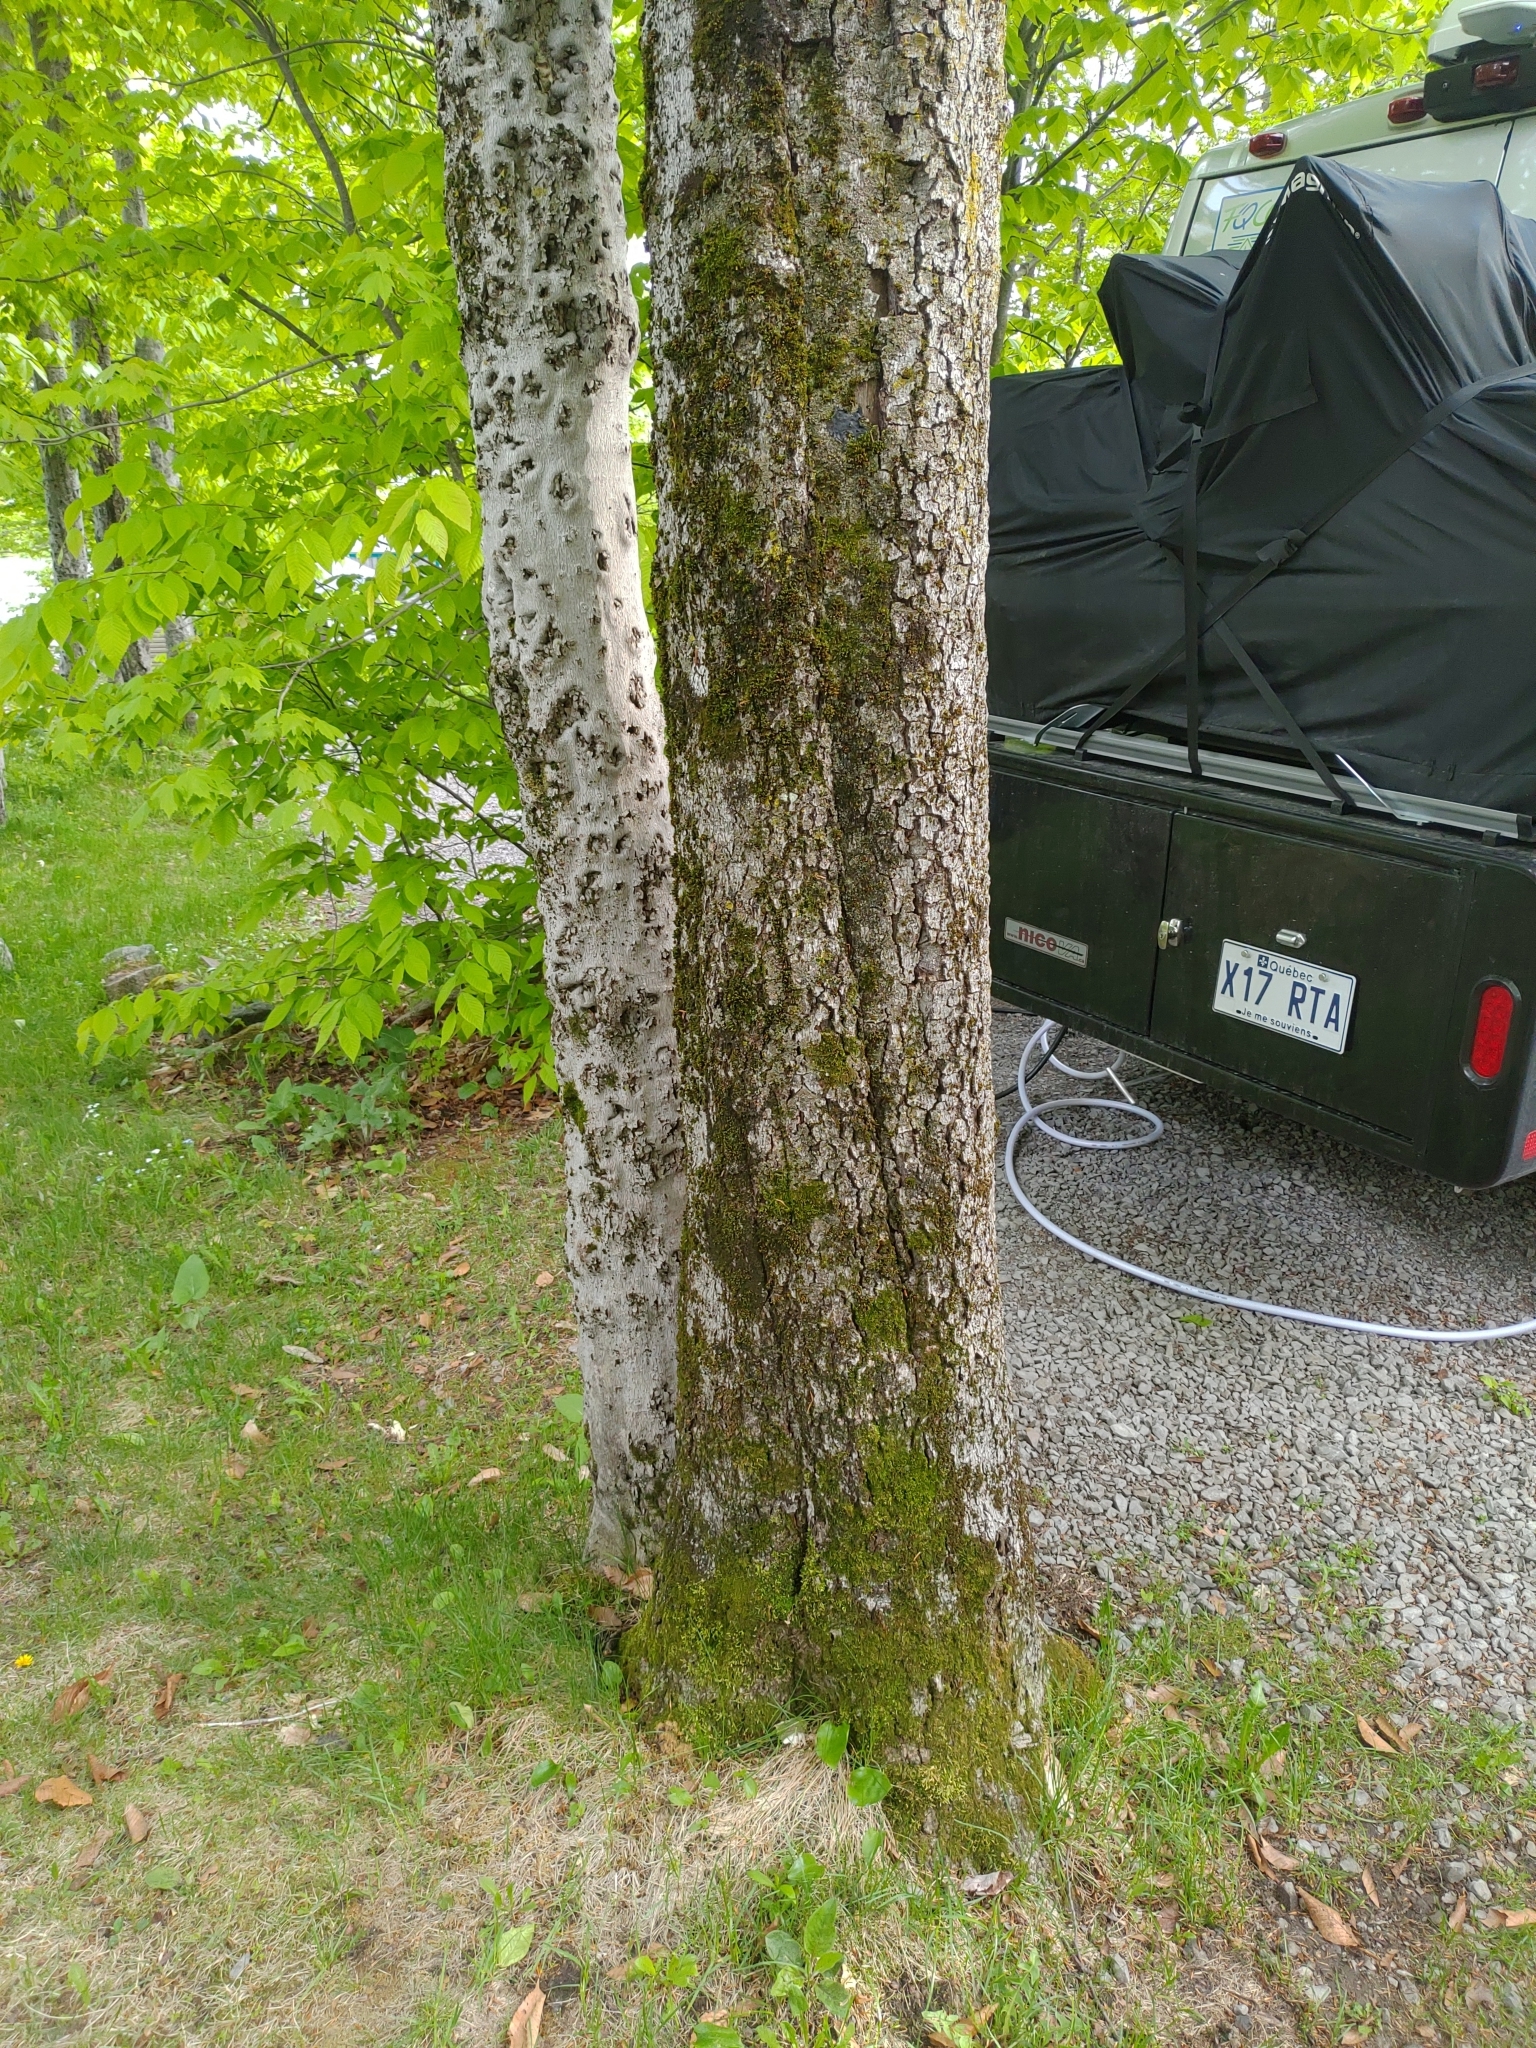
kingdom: Plantae
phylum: Tracheophyta
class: Magnoliopsida
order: Fagales
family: Fagaceae
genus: Fagus
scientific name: Fagus grandifolia
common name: American beech
